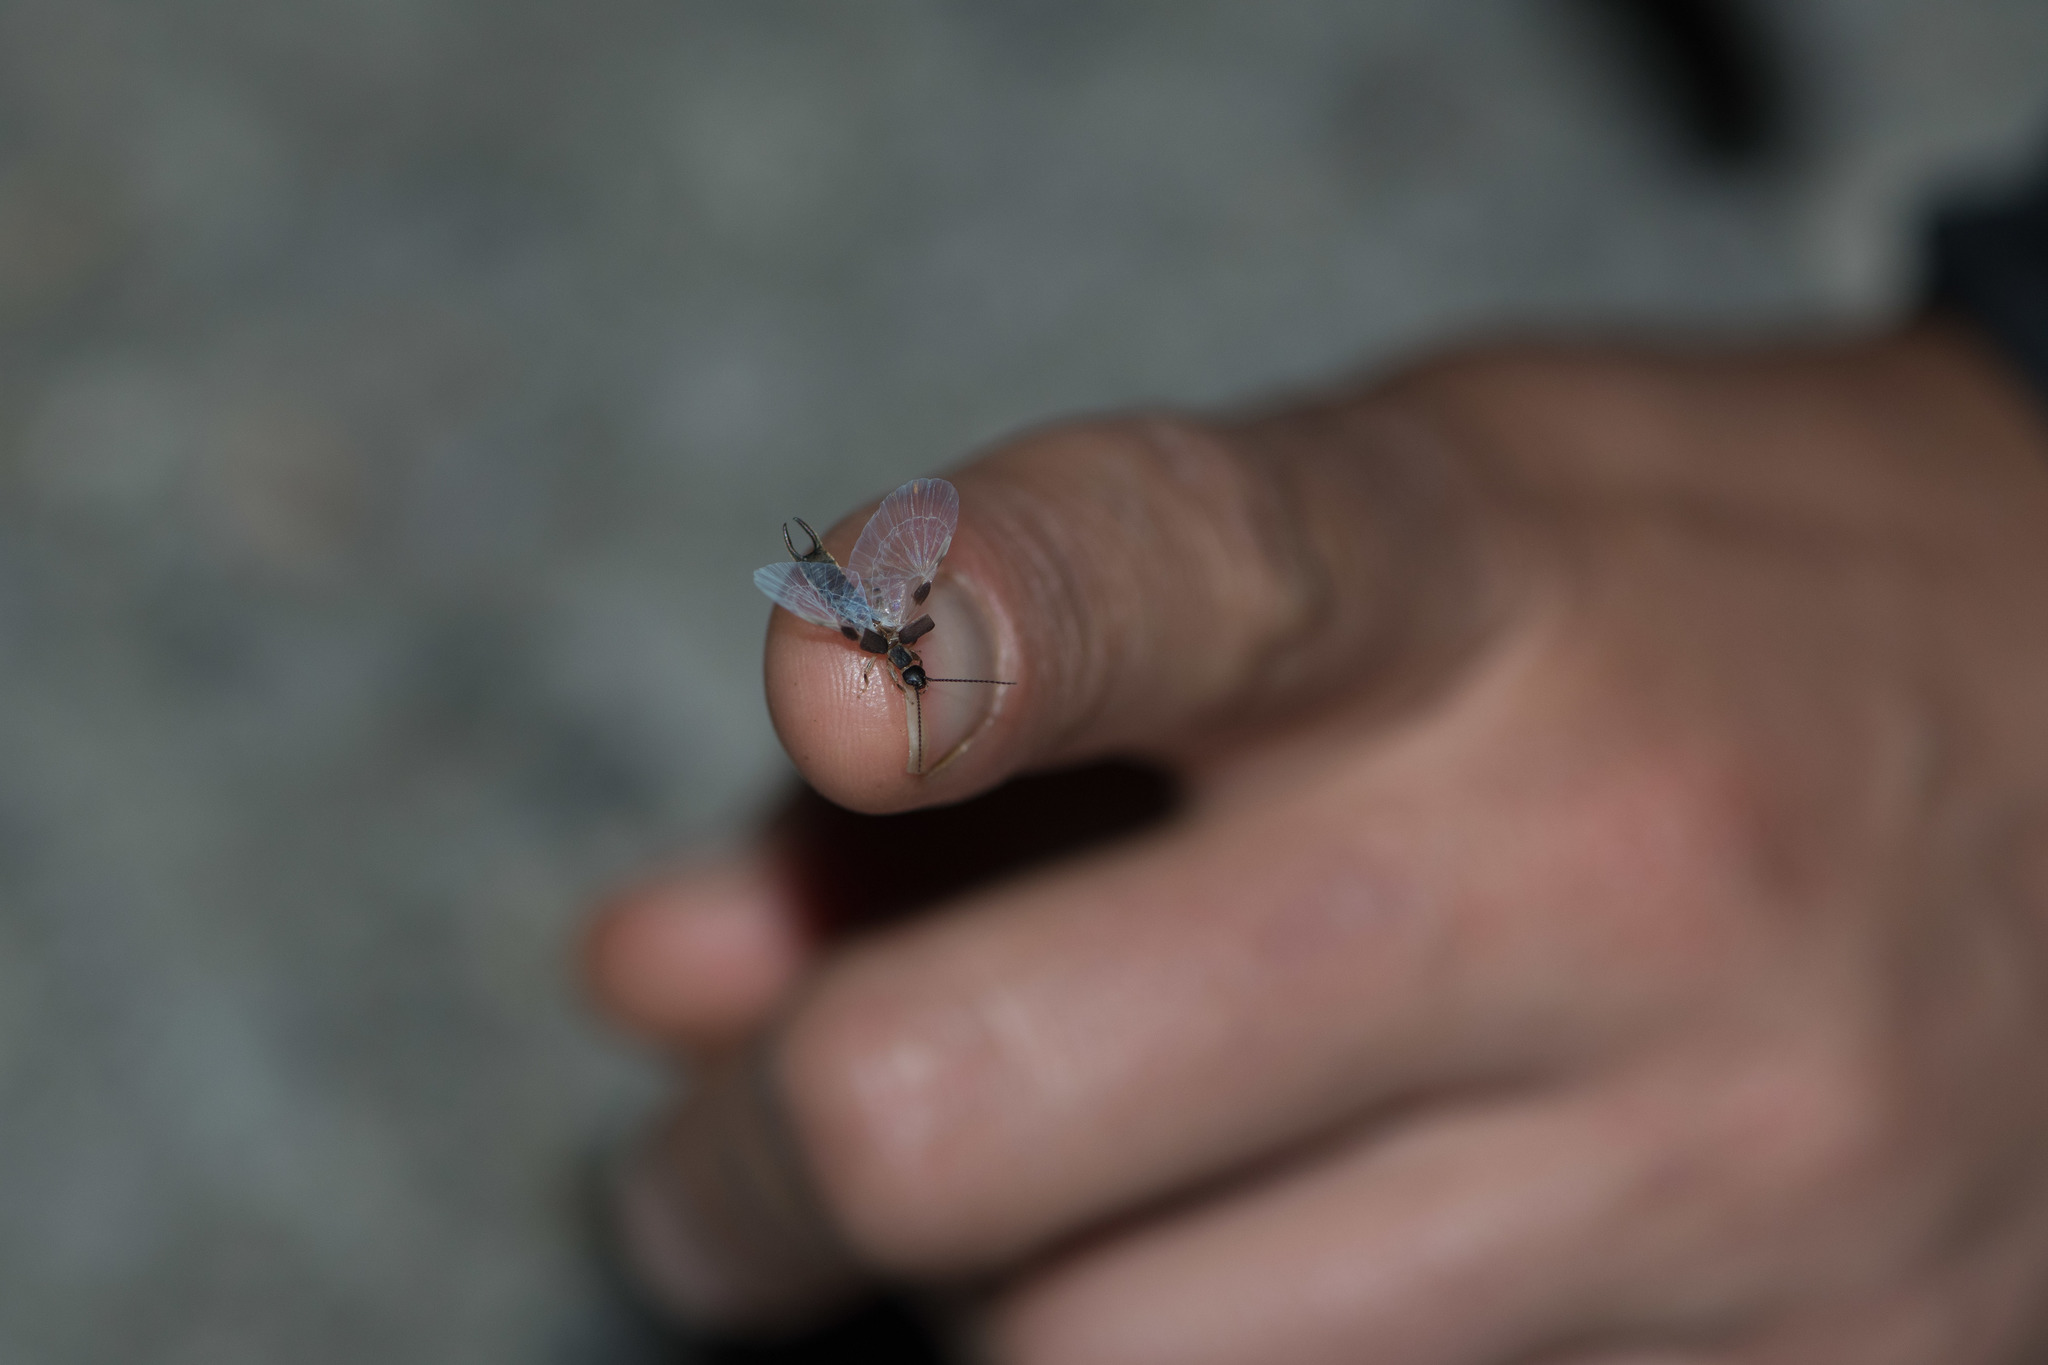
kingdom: Animalia
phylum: Arthropoda
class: Insecta
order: Dermaptera
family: Labiduridae
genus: Nala
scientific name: Nala lividipes
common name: Earwig
